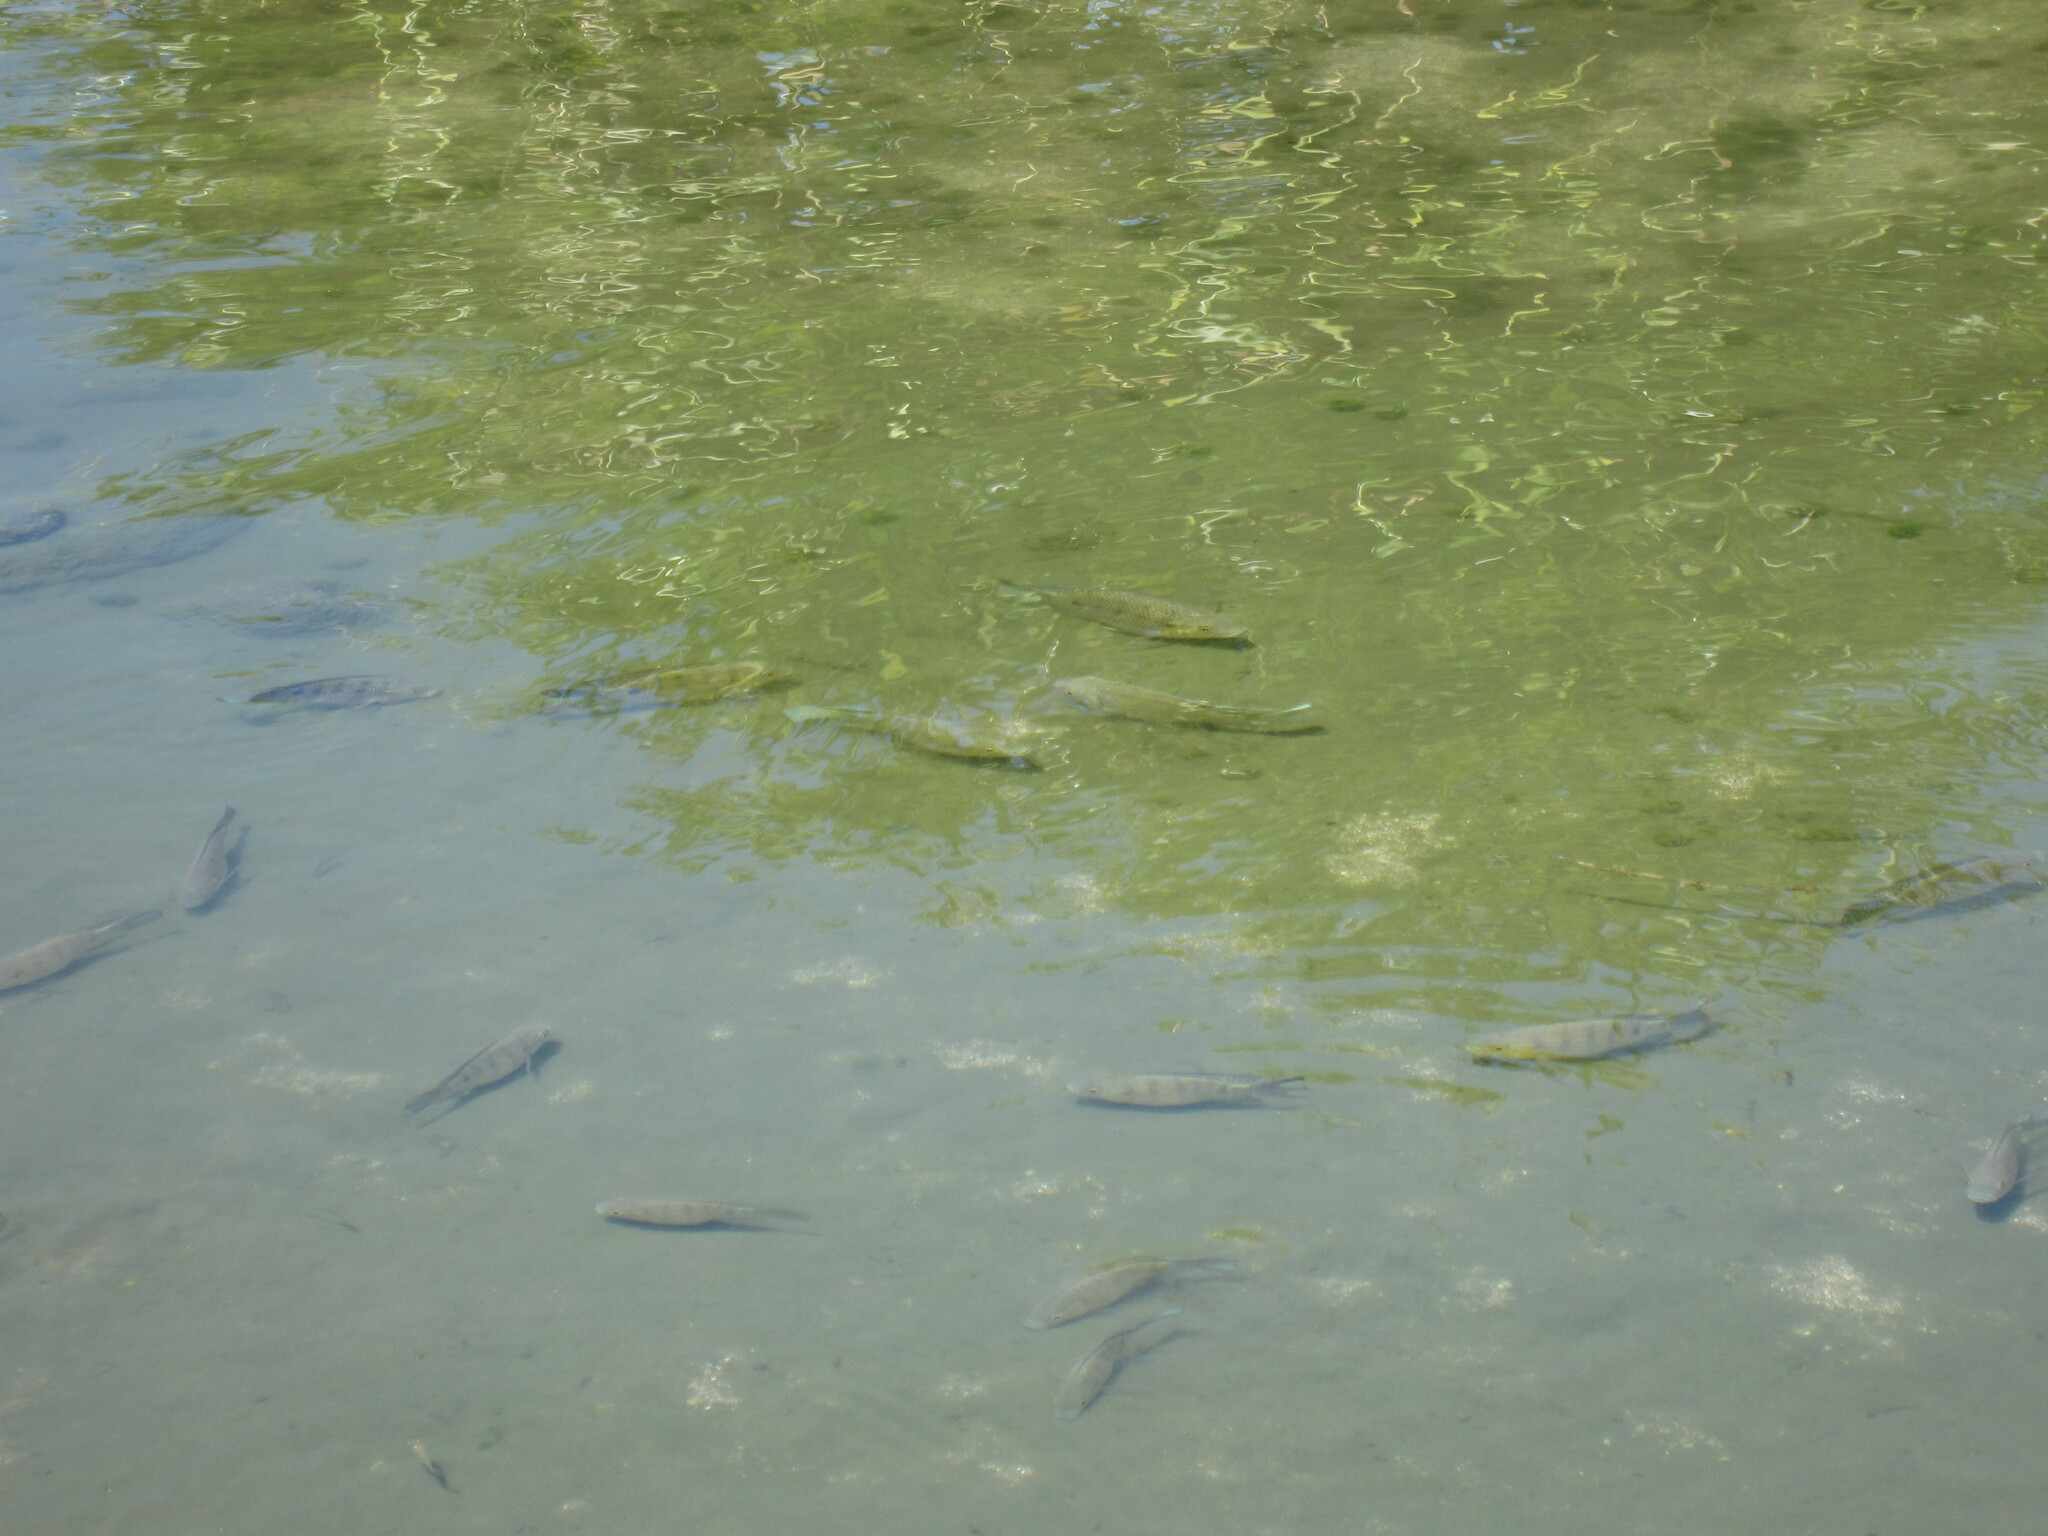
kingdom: Animalia
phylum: Chordata
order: Perciformes
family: Cichlidae
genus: Oreochromis
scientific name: Oreochromis mossambicus
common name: Mozambique tilapia
